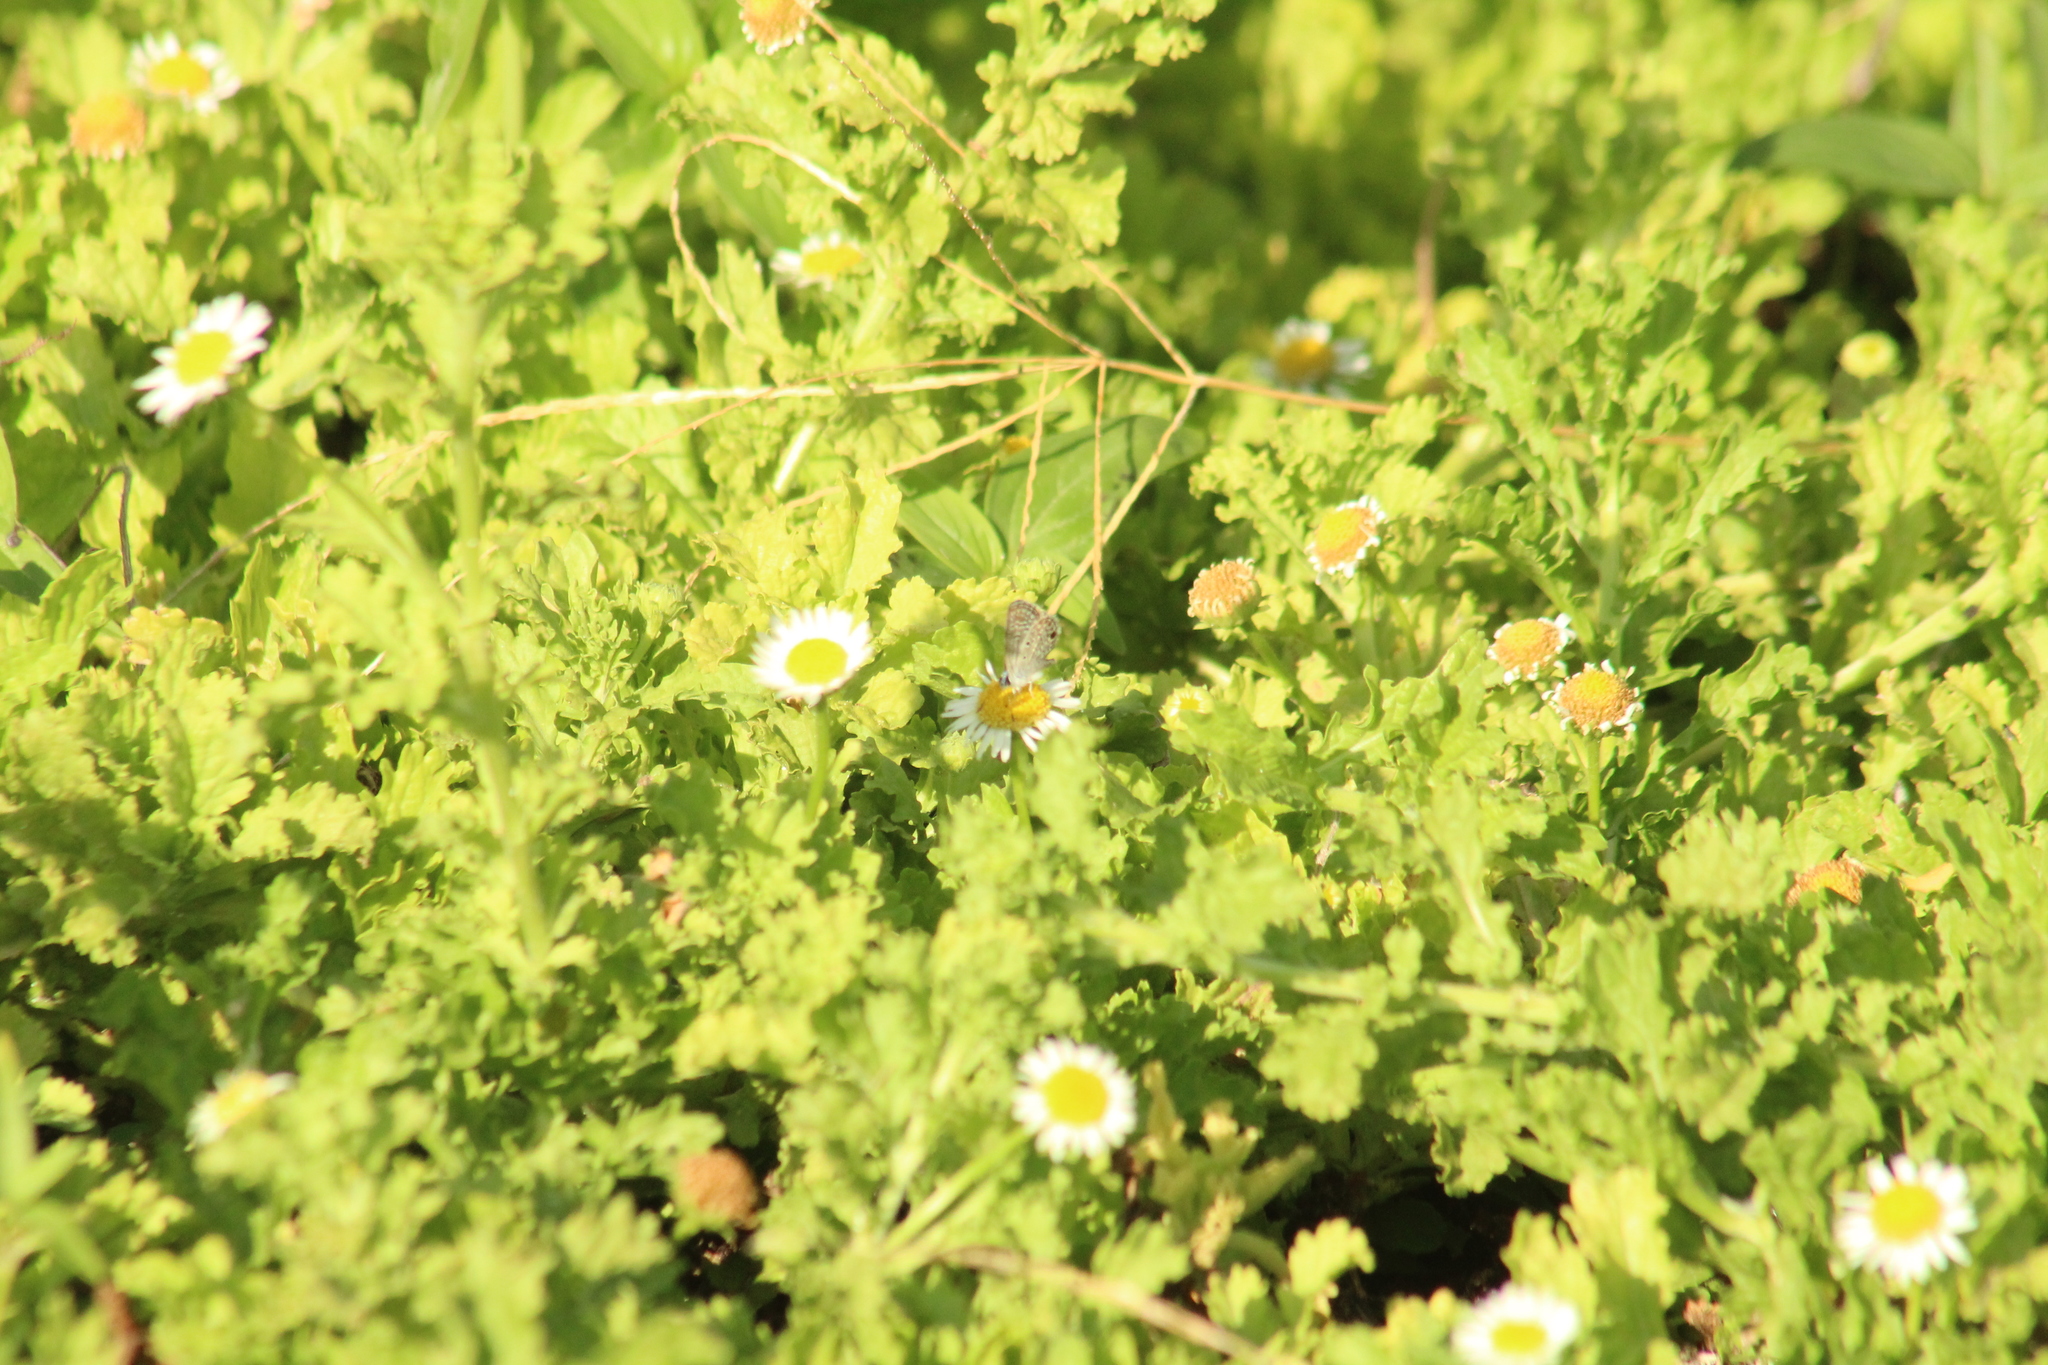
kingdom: Animalia
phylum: Arthropoda
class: Insecta
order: Lepidoptera
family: Lycaenidae
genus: Hemiargus
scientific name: Hemiargus hanno
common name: Common blue
